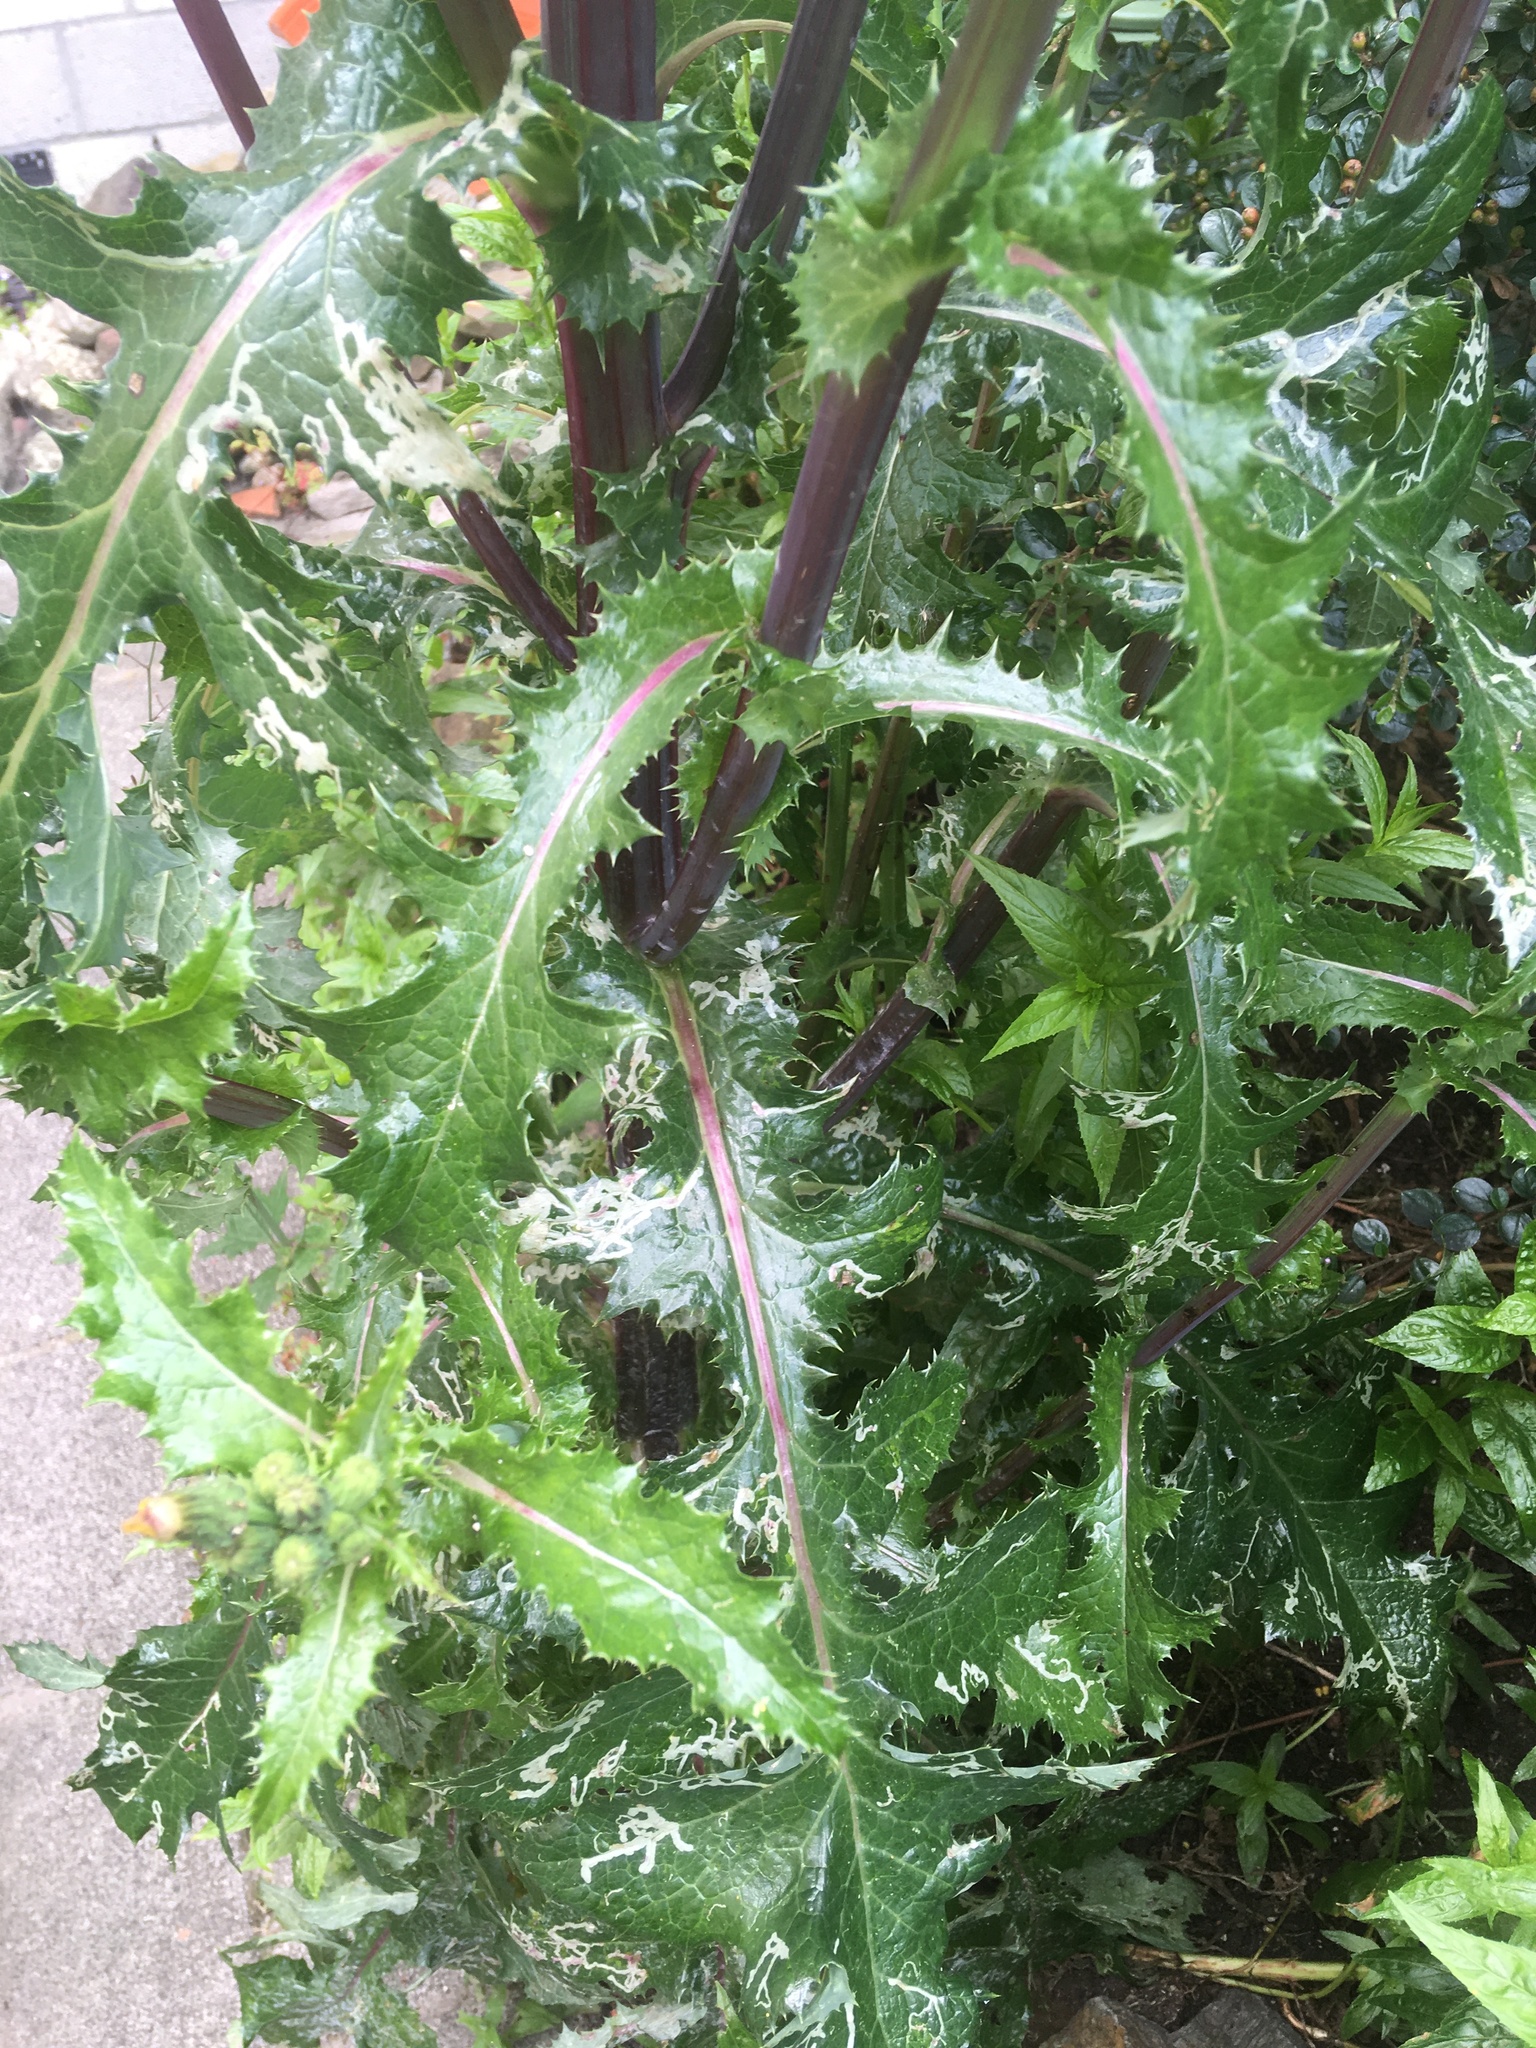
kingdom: Plantae
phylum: Tracheophyta
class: Magnoliopsida
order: Asterales
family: Asteraceae
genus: Sonchus
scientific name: Sonchus asper
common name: Prickly sow-thistle
